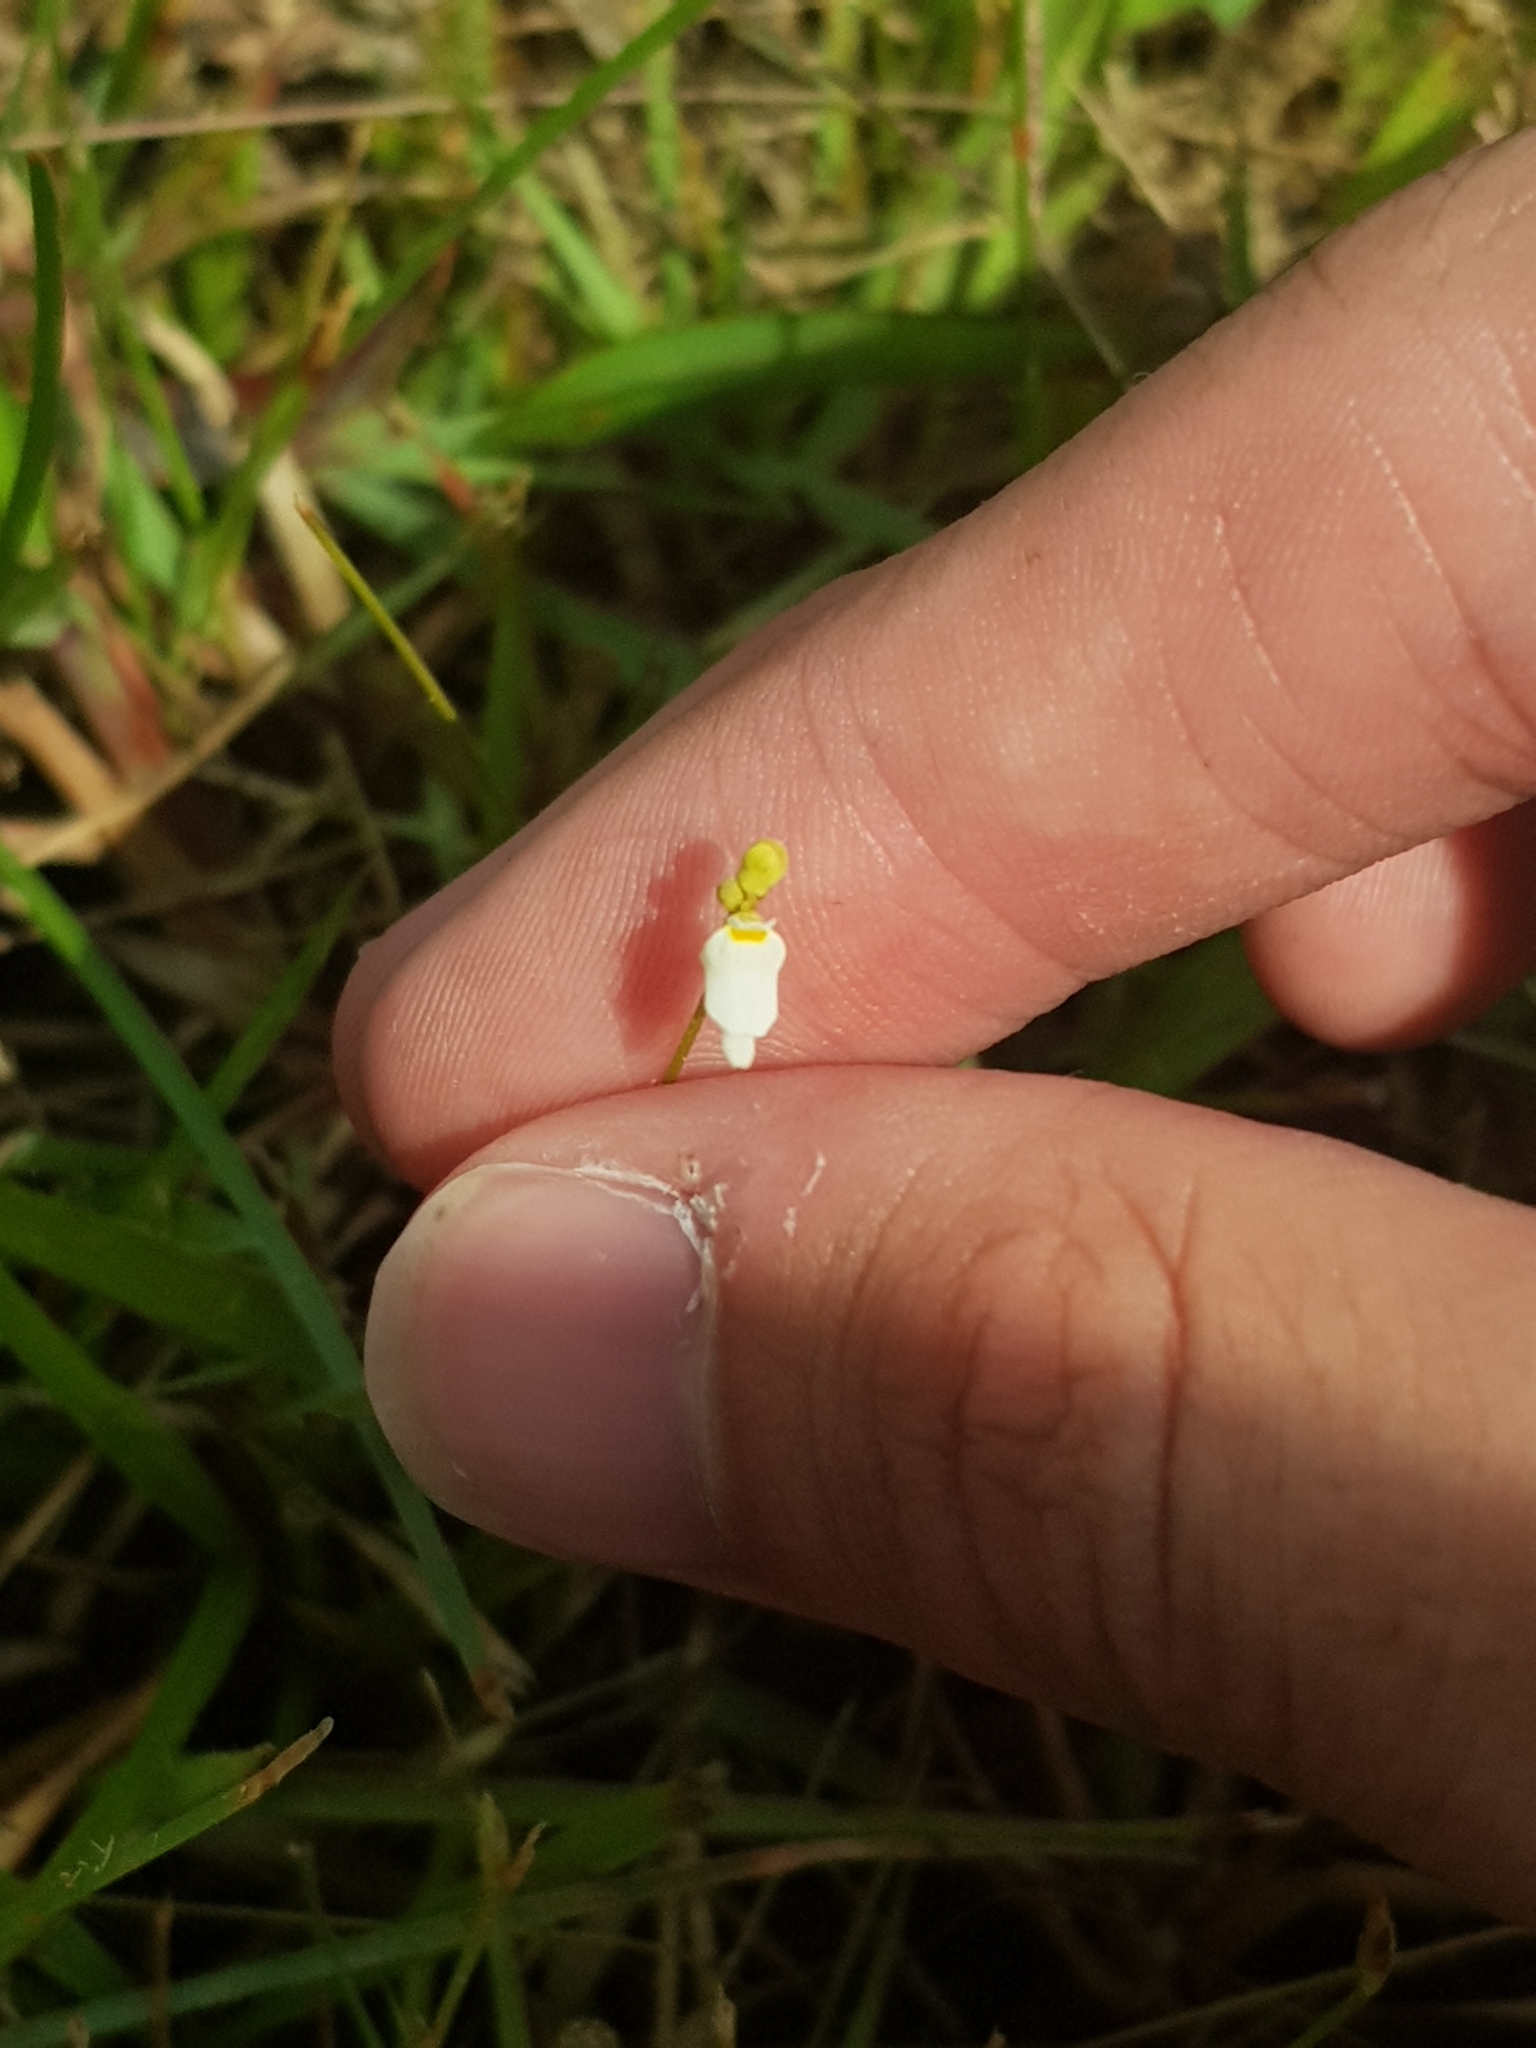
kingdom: Plantae
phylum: Tracheophyta
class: Magnoliopsida
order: Lamiales
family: Lentibulariaceae
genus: Utricularia
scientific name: Utricularia caerulea
